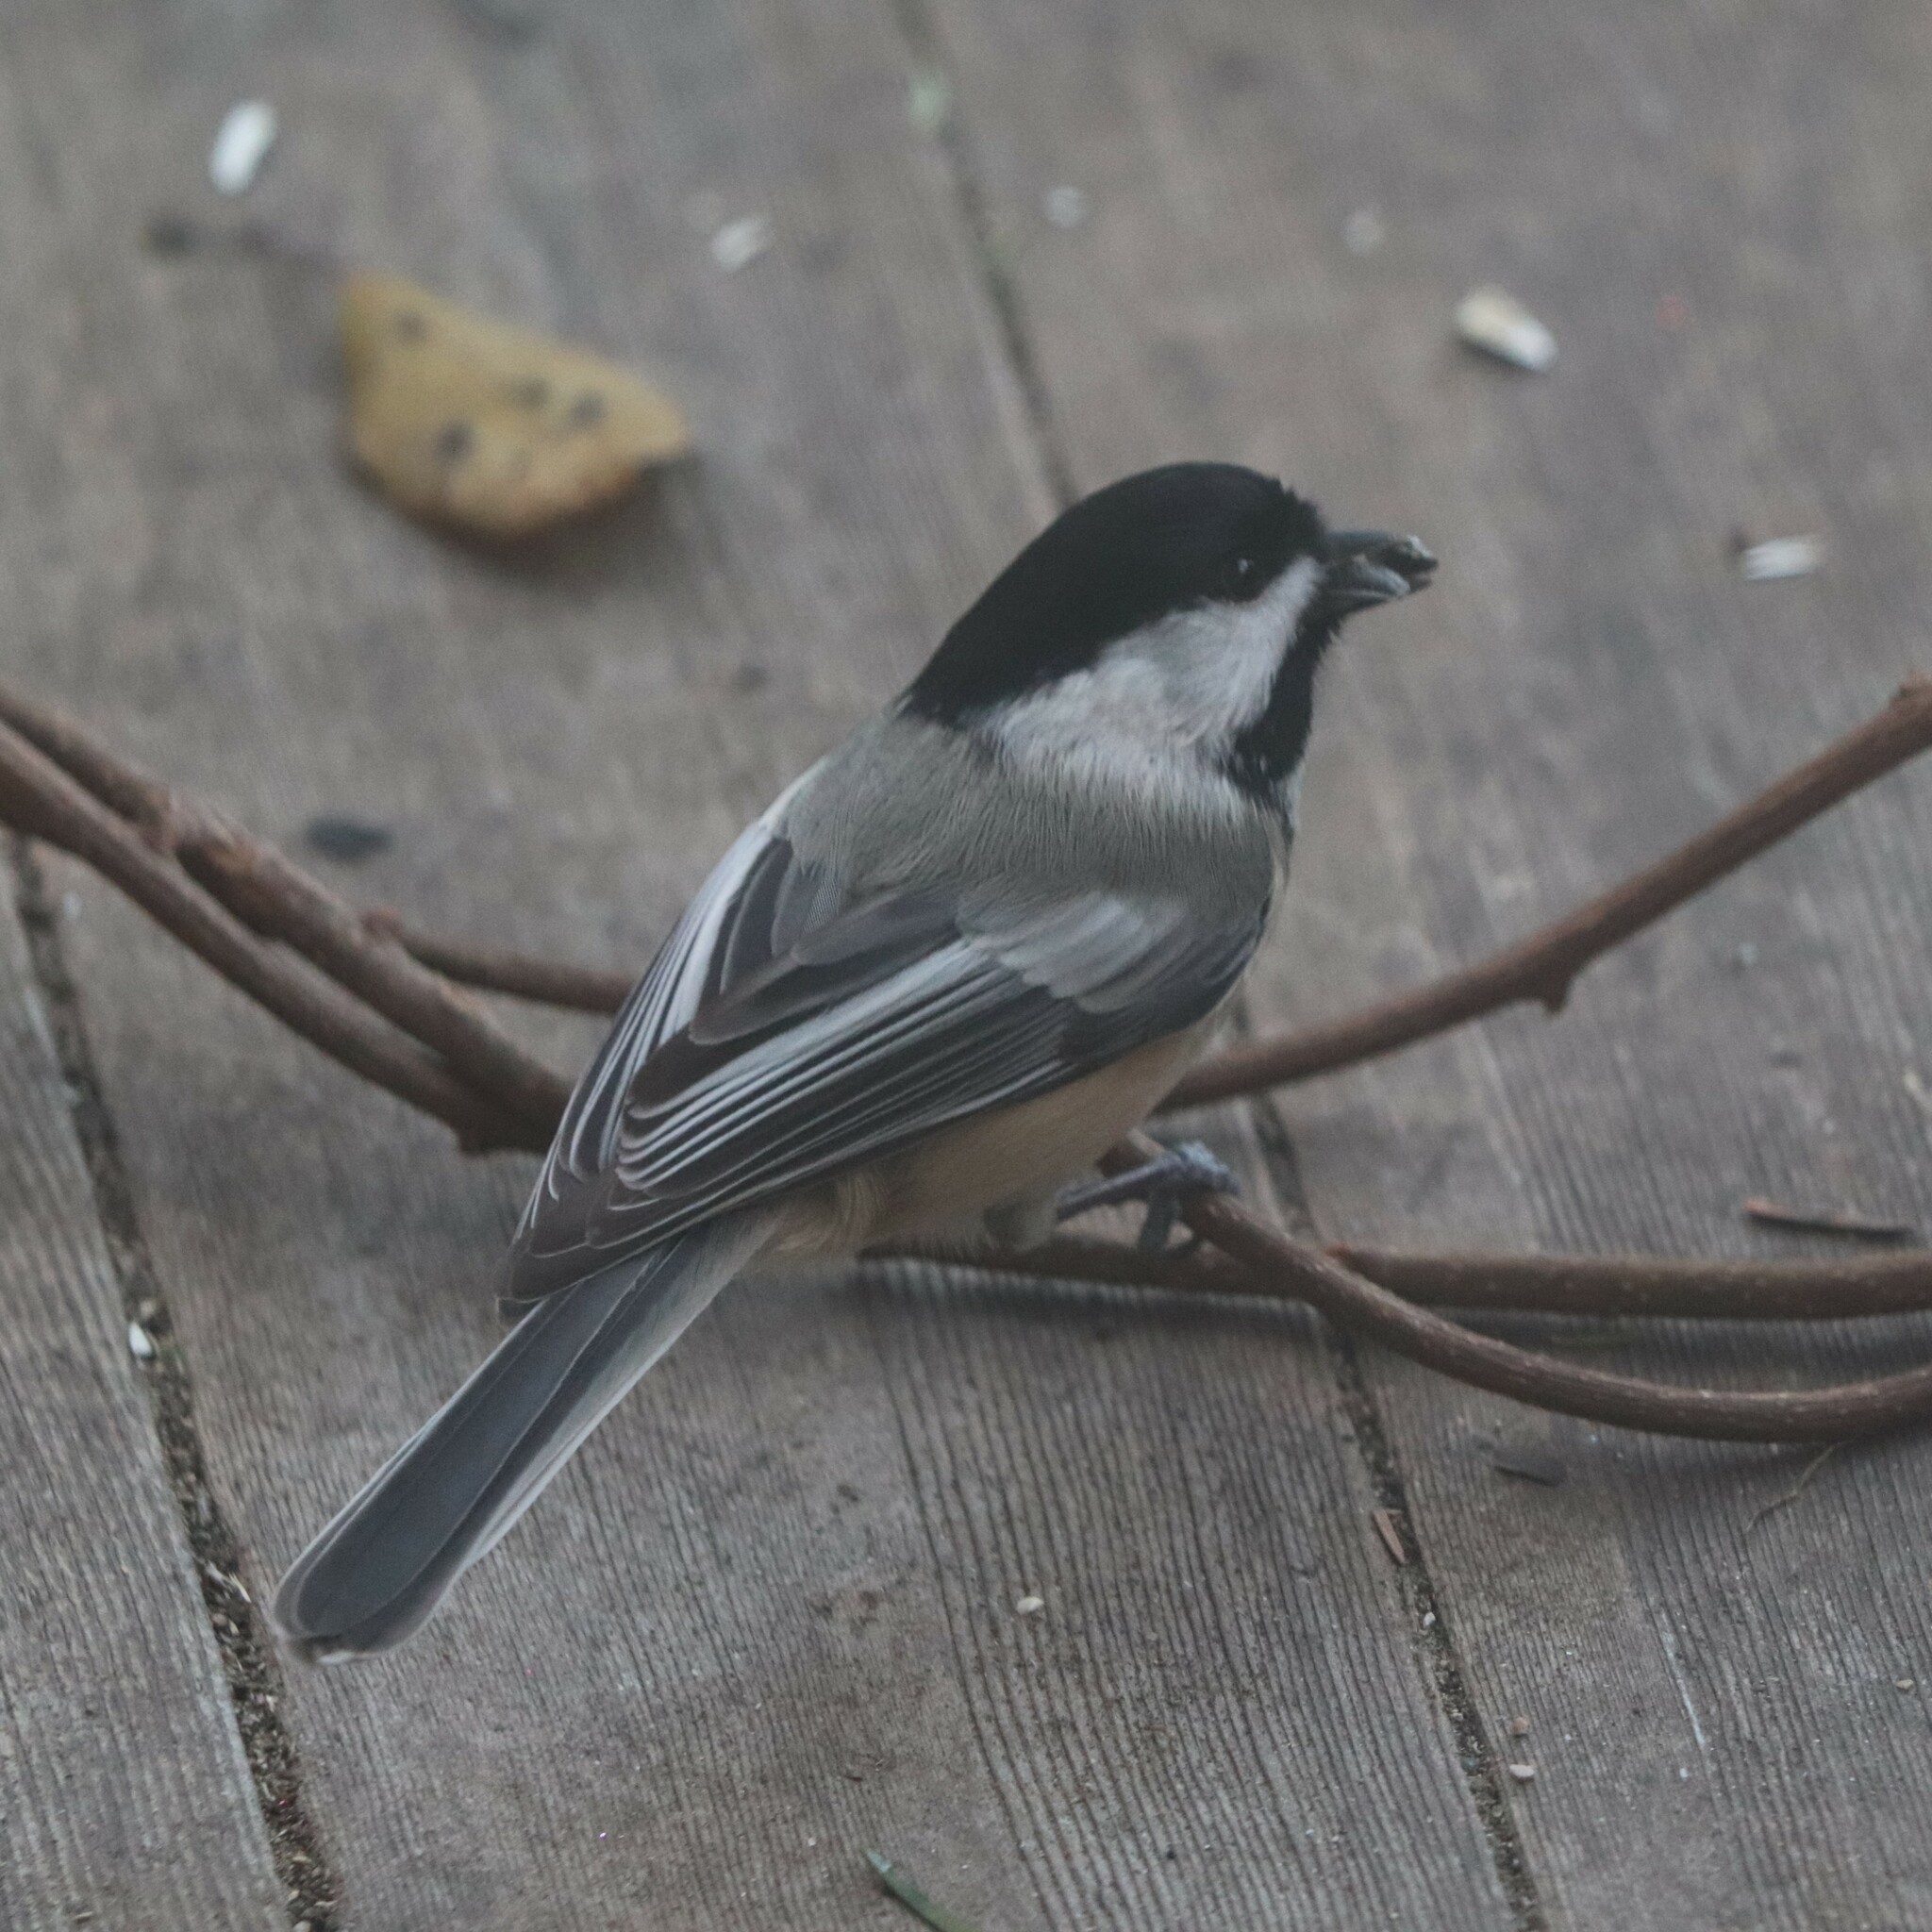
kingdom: Animalia
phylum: Chordata
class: Aves
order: Passeriformes
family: Paridae
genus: Poecile
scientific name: Poecile atricapillus
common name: Black-capped chickadee
